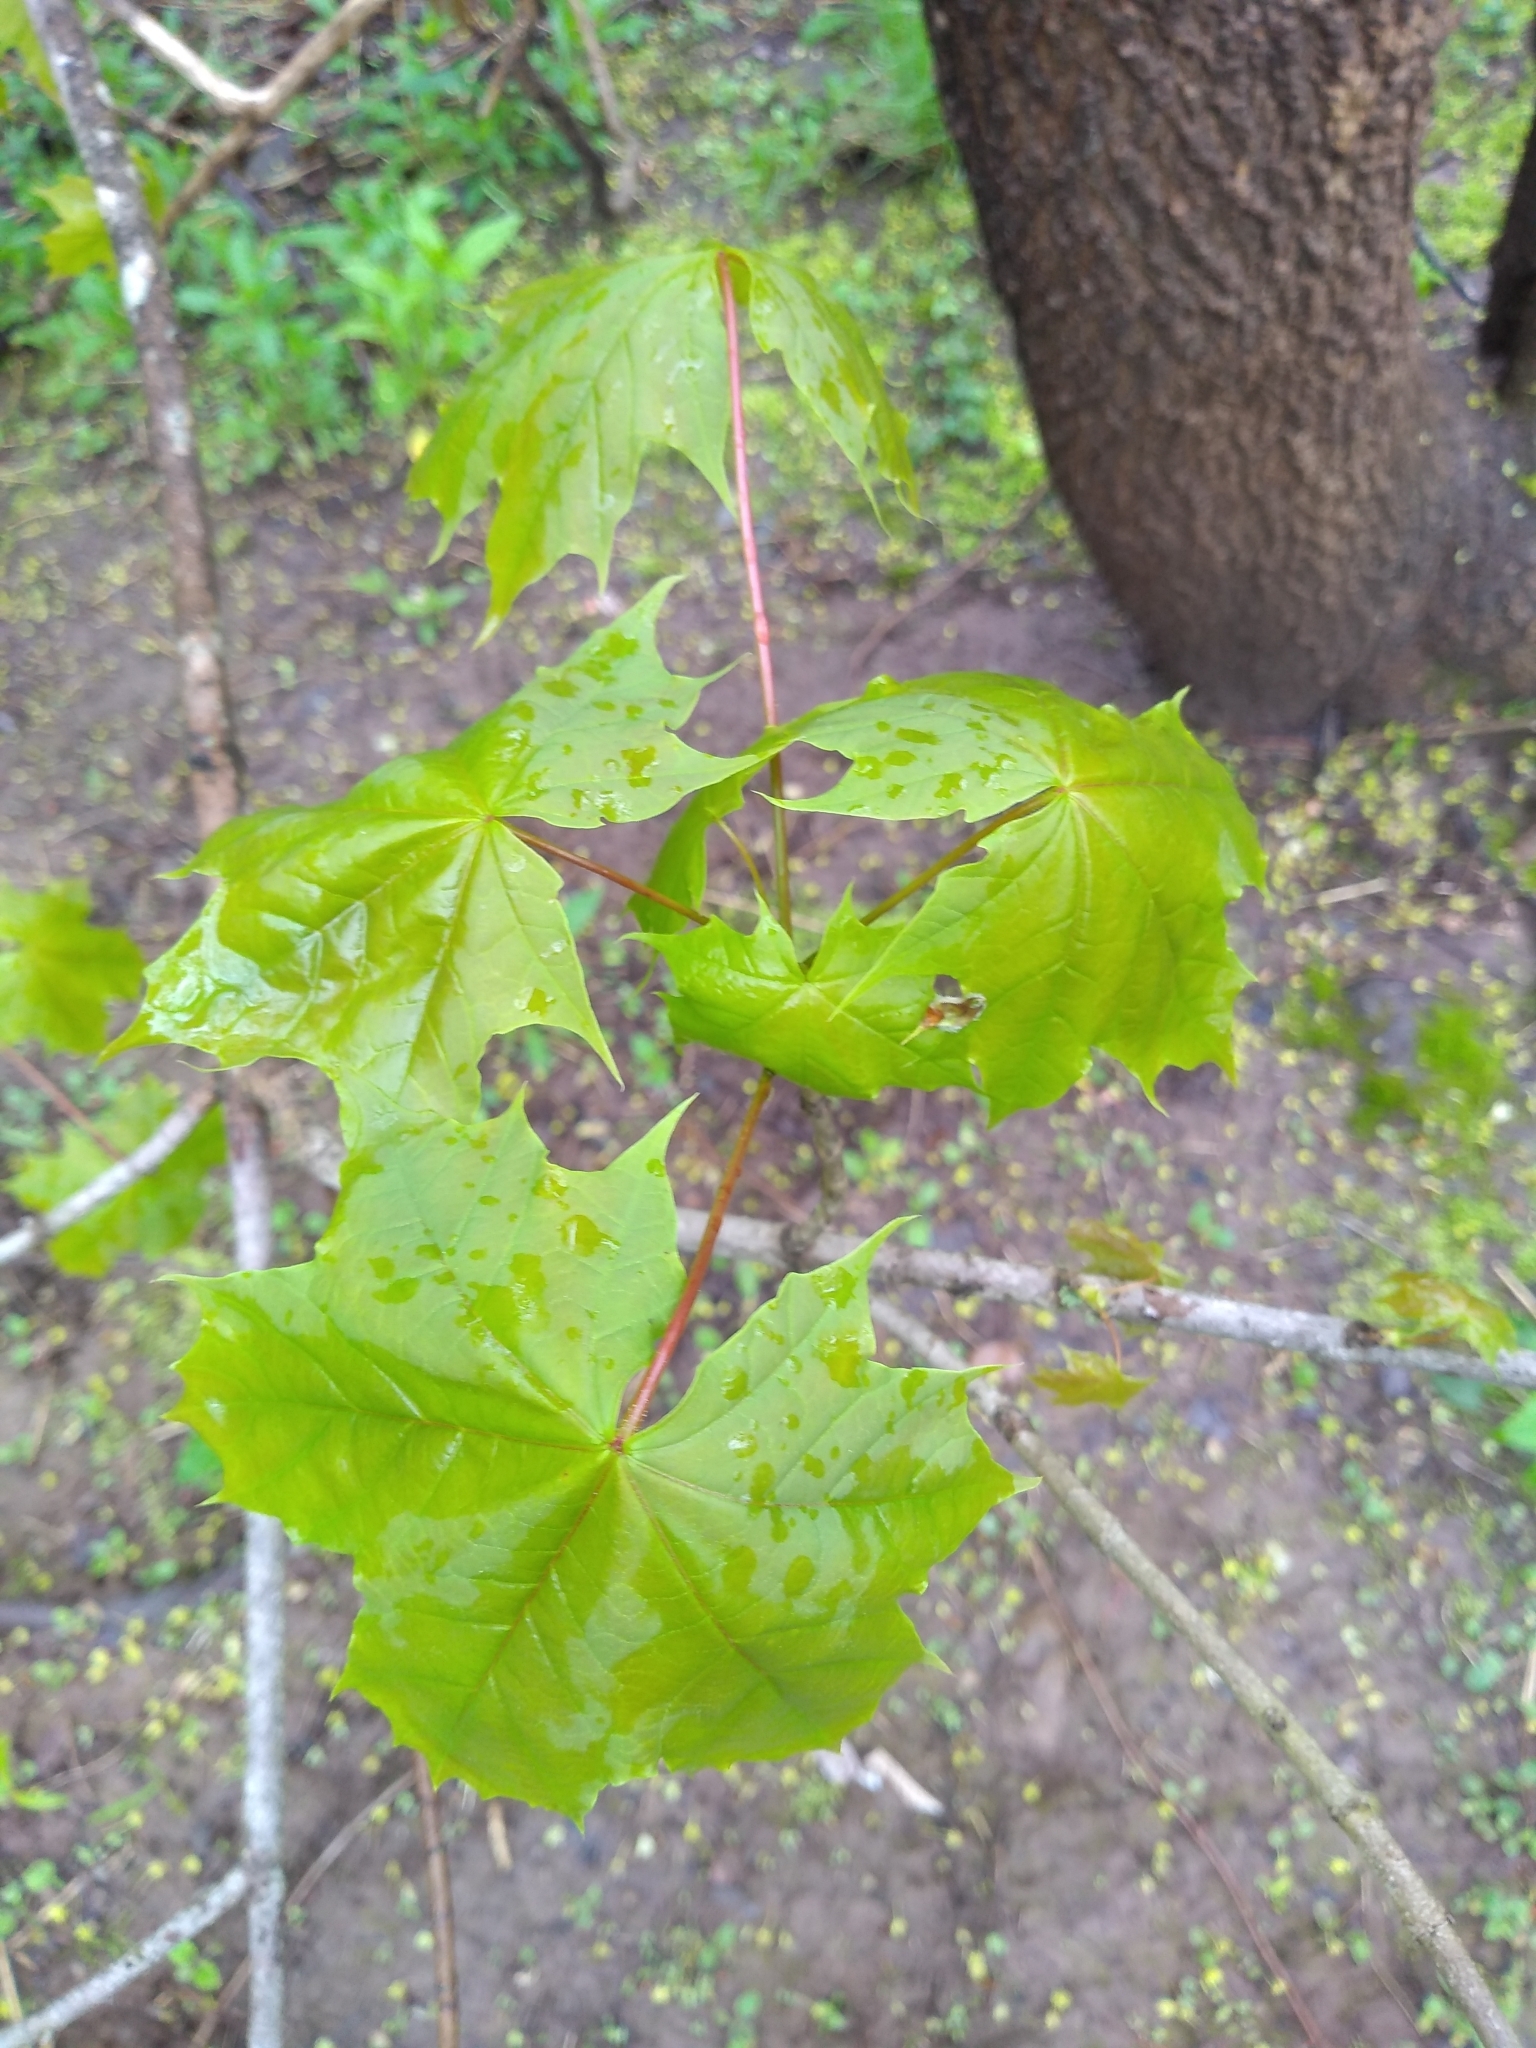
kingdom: Plantae
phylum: Tracheophyta
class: Magnoliopsida
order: Sapindales
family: Sapindaceae
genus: Acer
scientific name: Acer platanoides
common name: Norway maple
